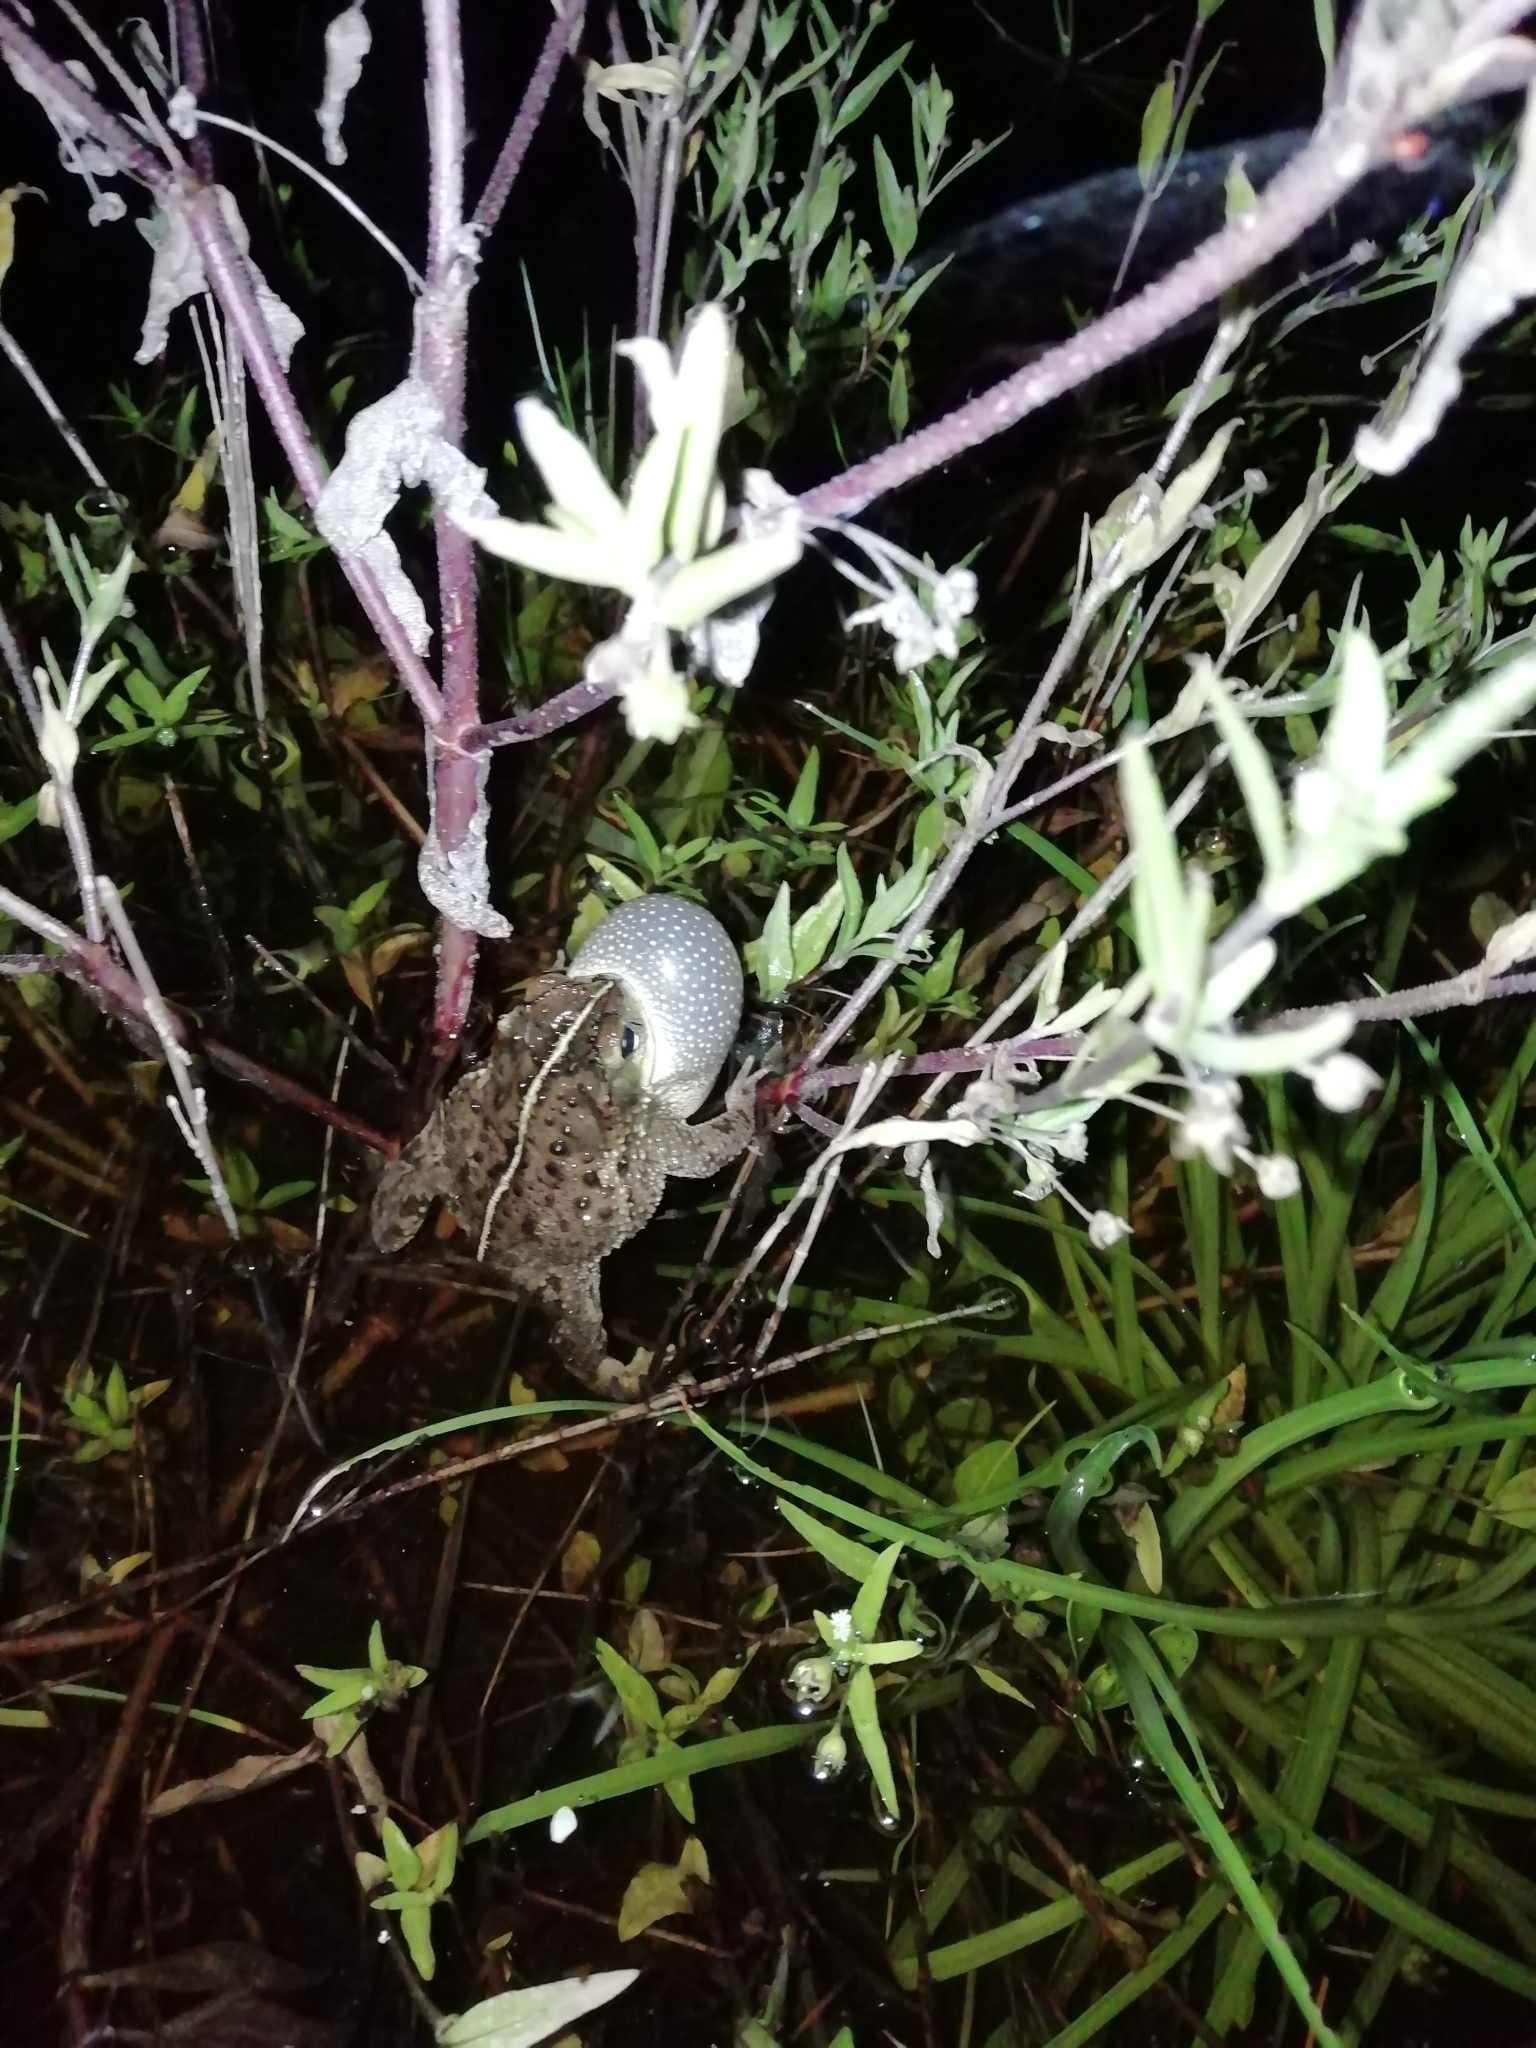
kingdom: Animalia
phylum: Chordata
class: Amphibia
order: Anura
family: Bufonidae
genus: Rhinella
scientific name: Rhinella dorbignyi
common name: D´orbigny’s toad
